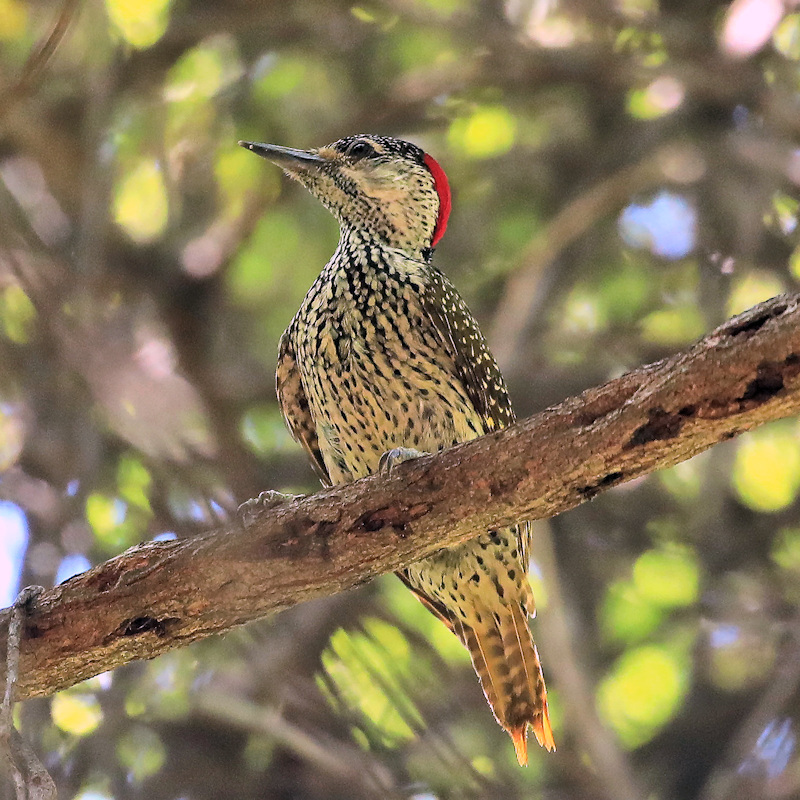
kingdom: Animalia
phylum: Chordata
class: Aves
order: Piciformes
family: Picidae
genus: Campethera
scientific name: Campethera abingoni
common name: Golden-tailed woodpecker
